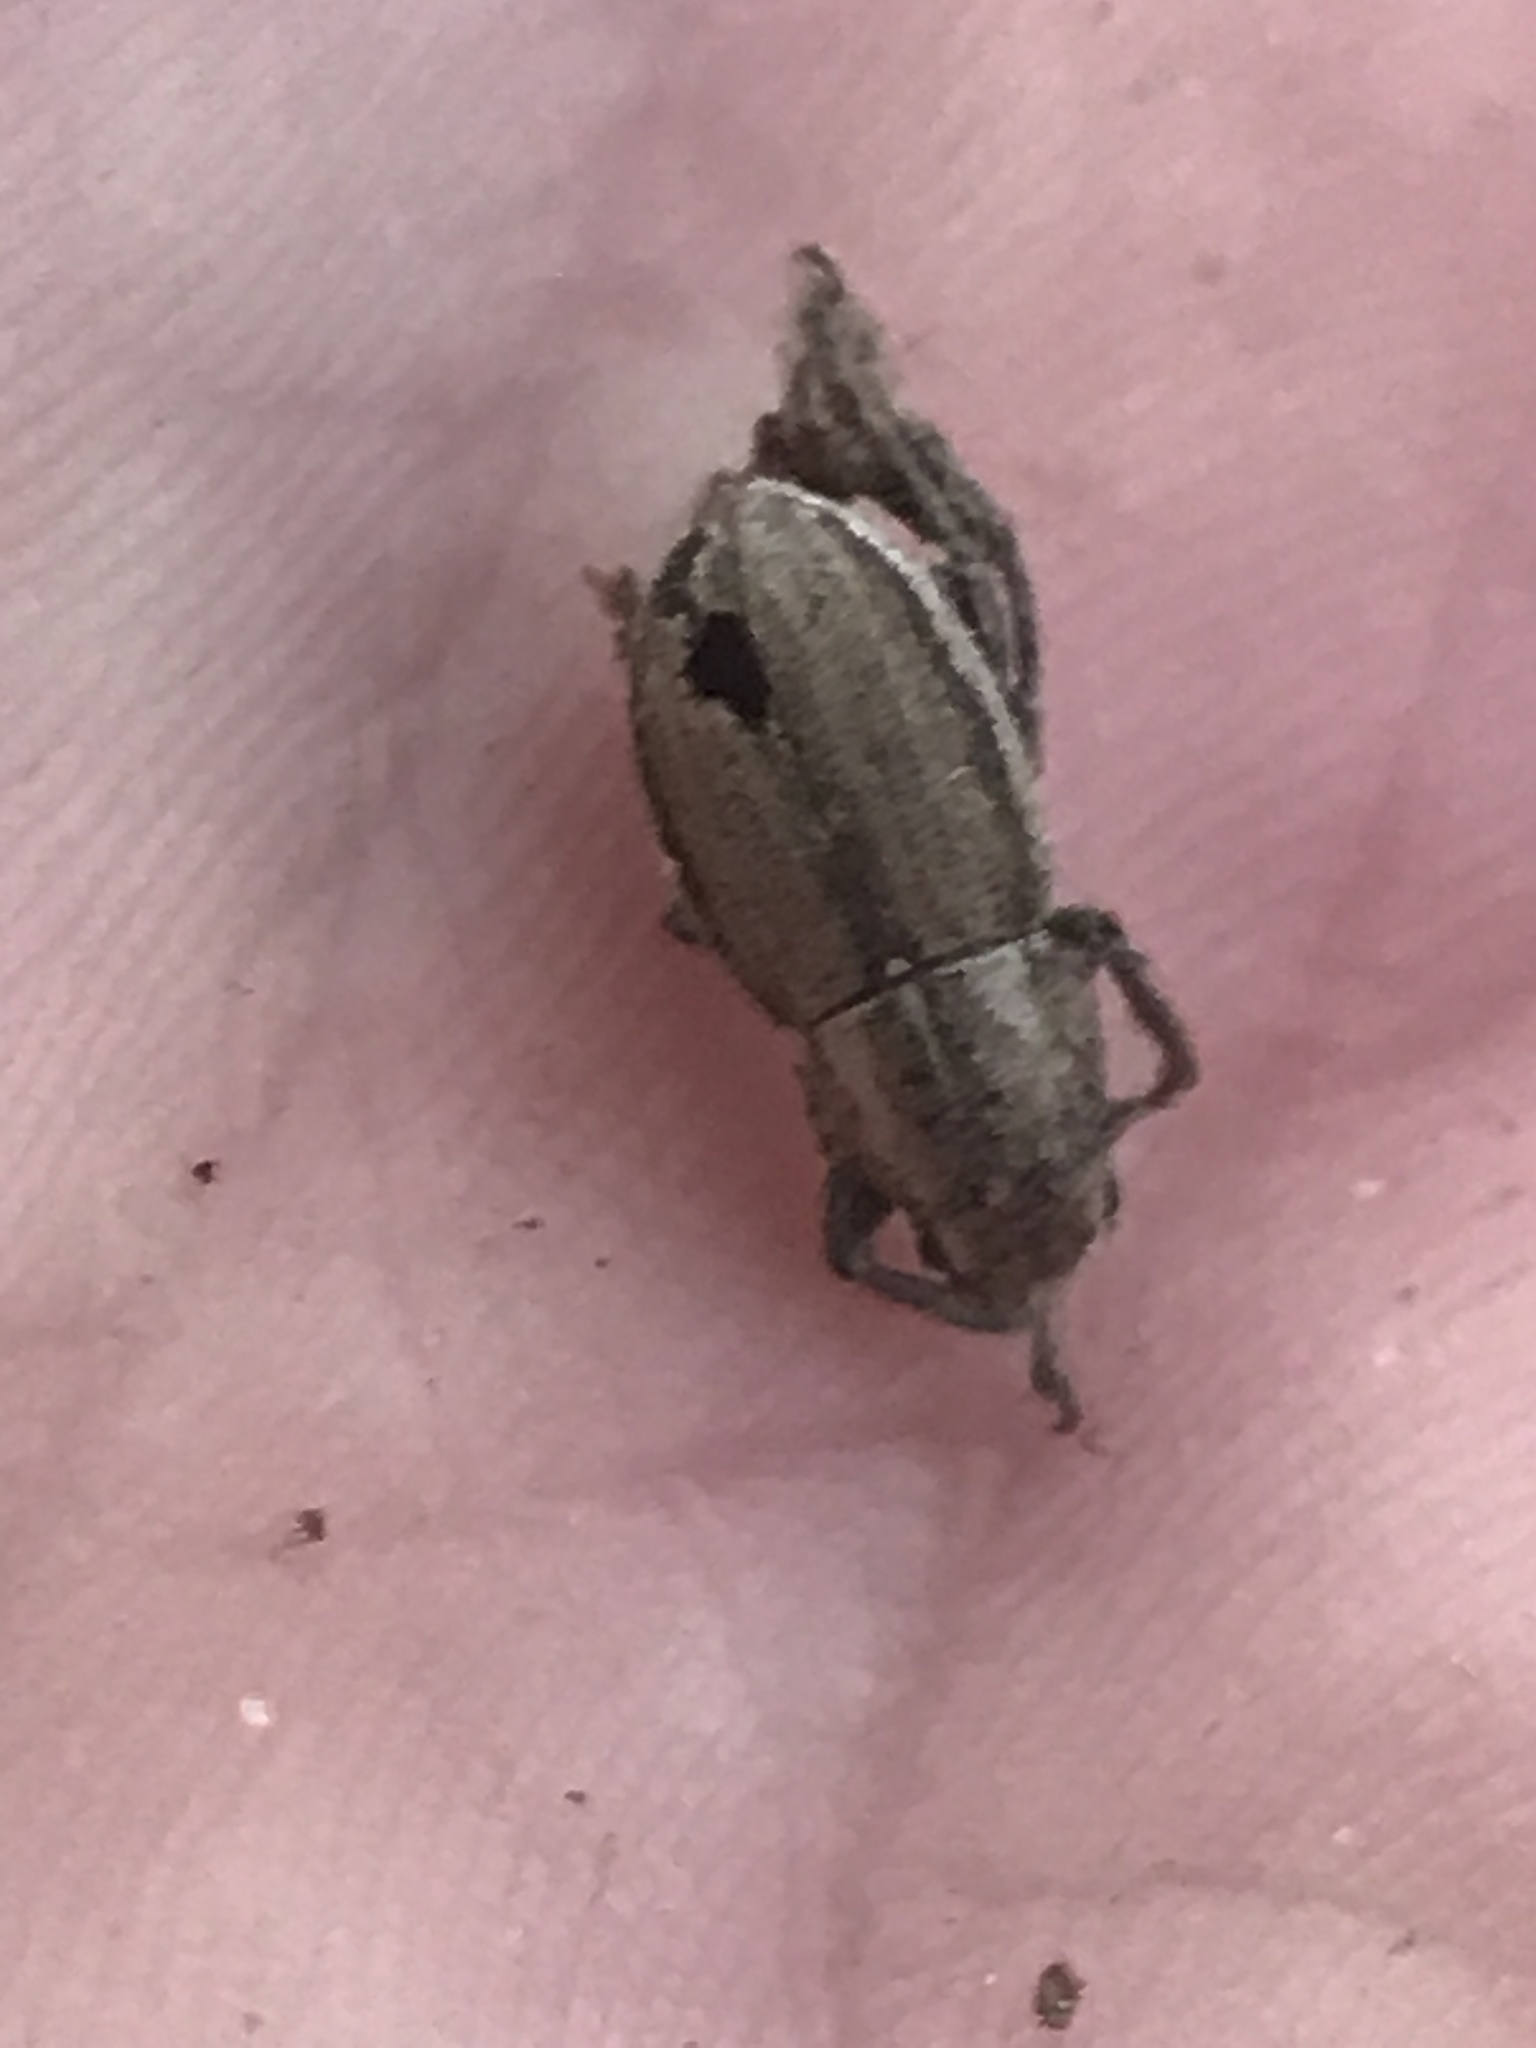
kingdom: Animalia
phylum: Arthropoda
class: Insecta
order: Coleoptera
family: Curculionidae
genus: Naupactus
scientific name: Naupactus peregrinus
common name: Whitefringed beetle
